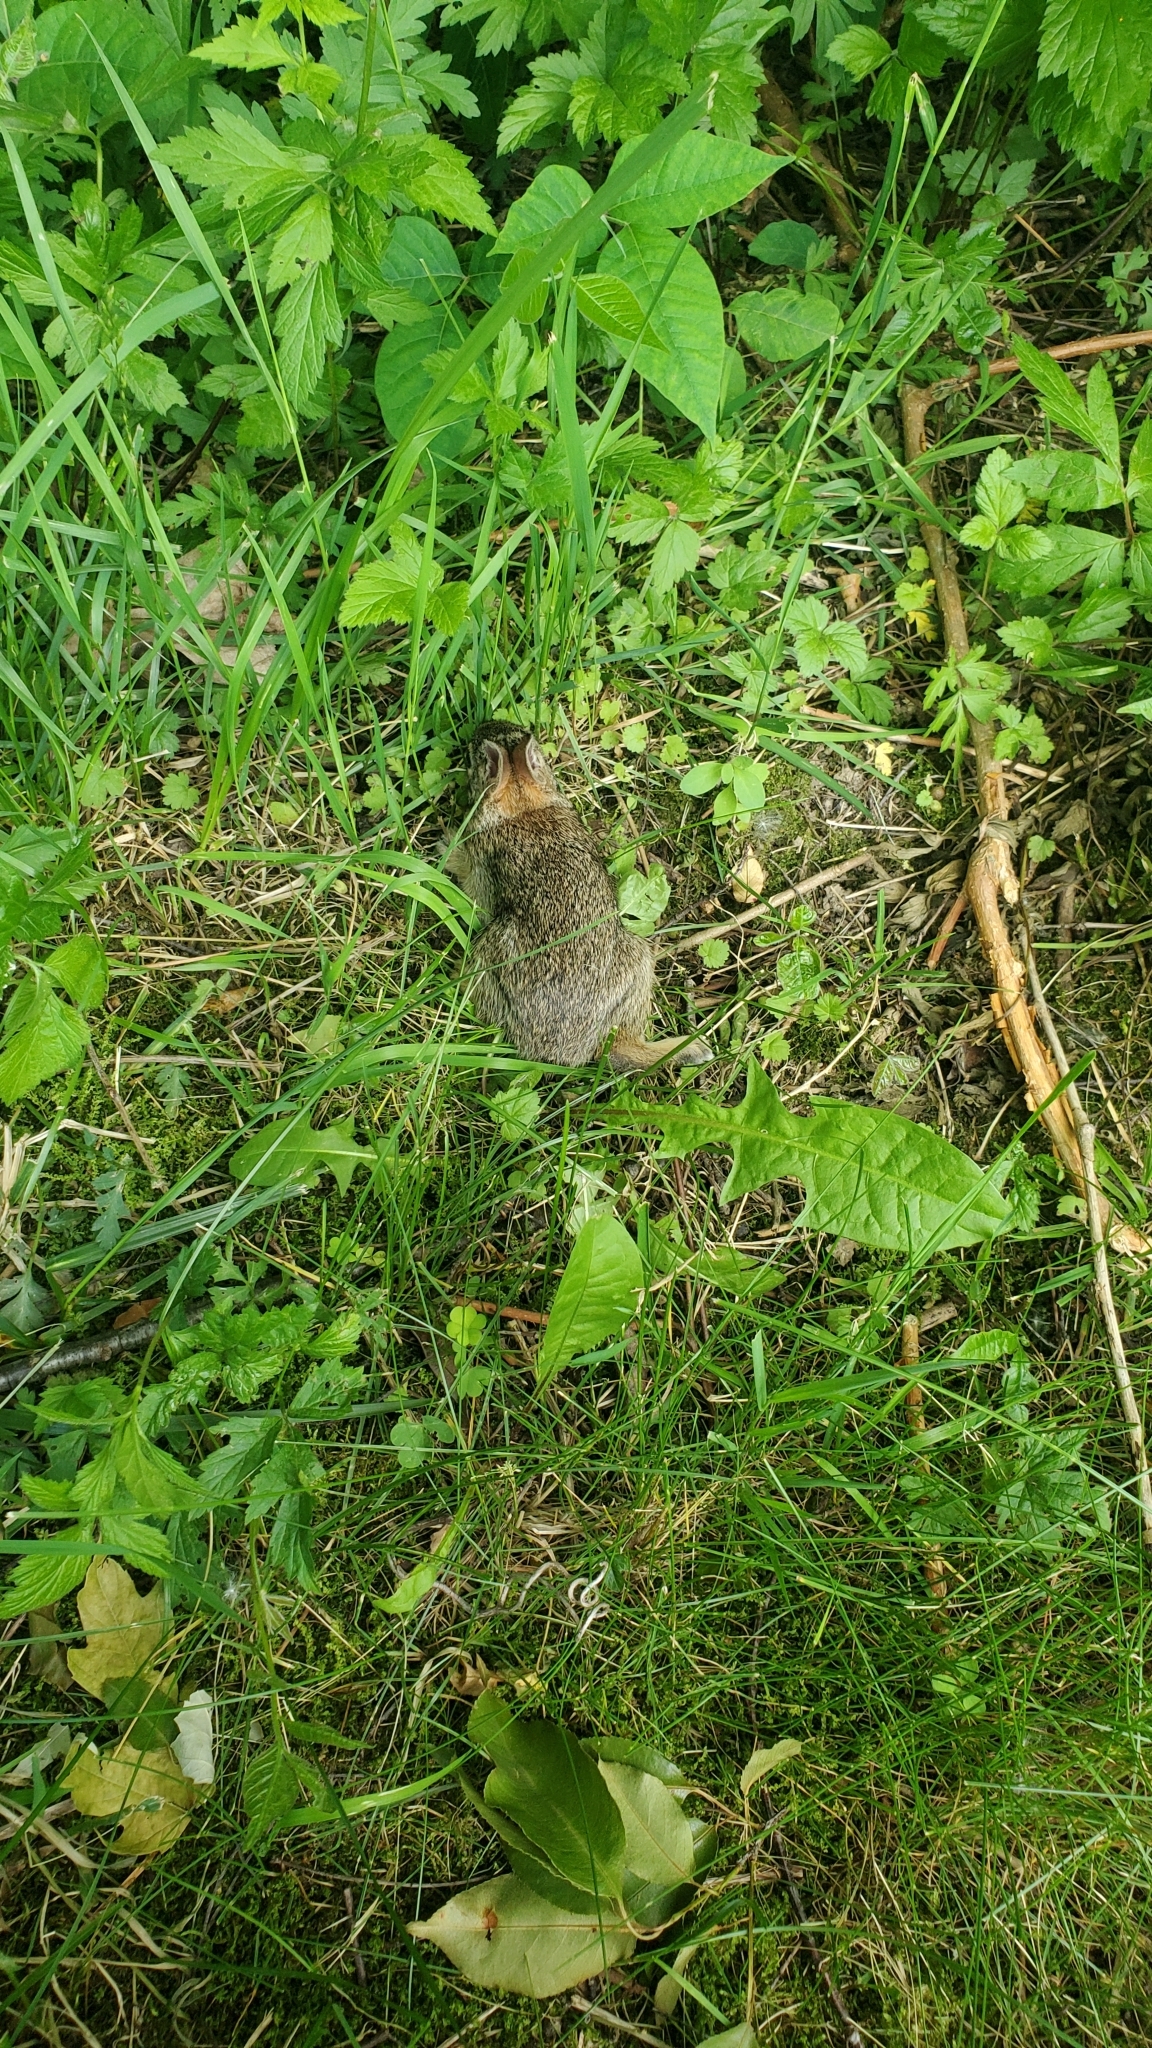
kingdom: Animalia
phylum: Chordata
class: Mammalia
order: Lagomorpha
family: Leporidae
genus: Sylvilagus
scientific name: Sylvilagus floridanus
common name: Eastern cottontail
